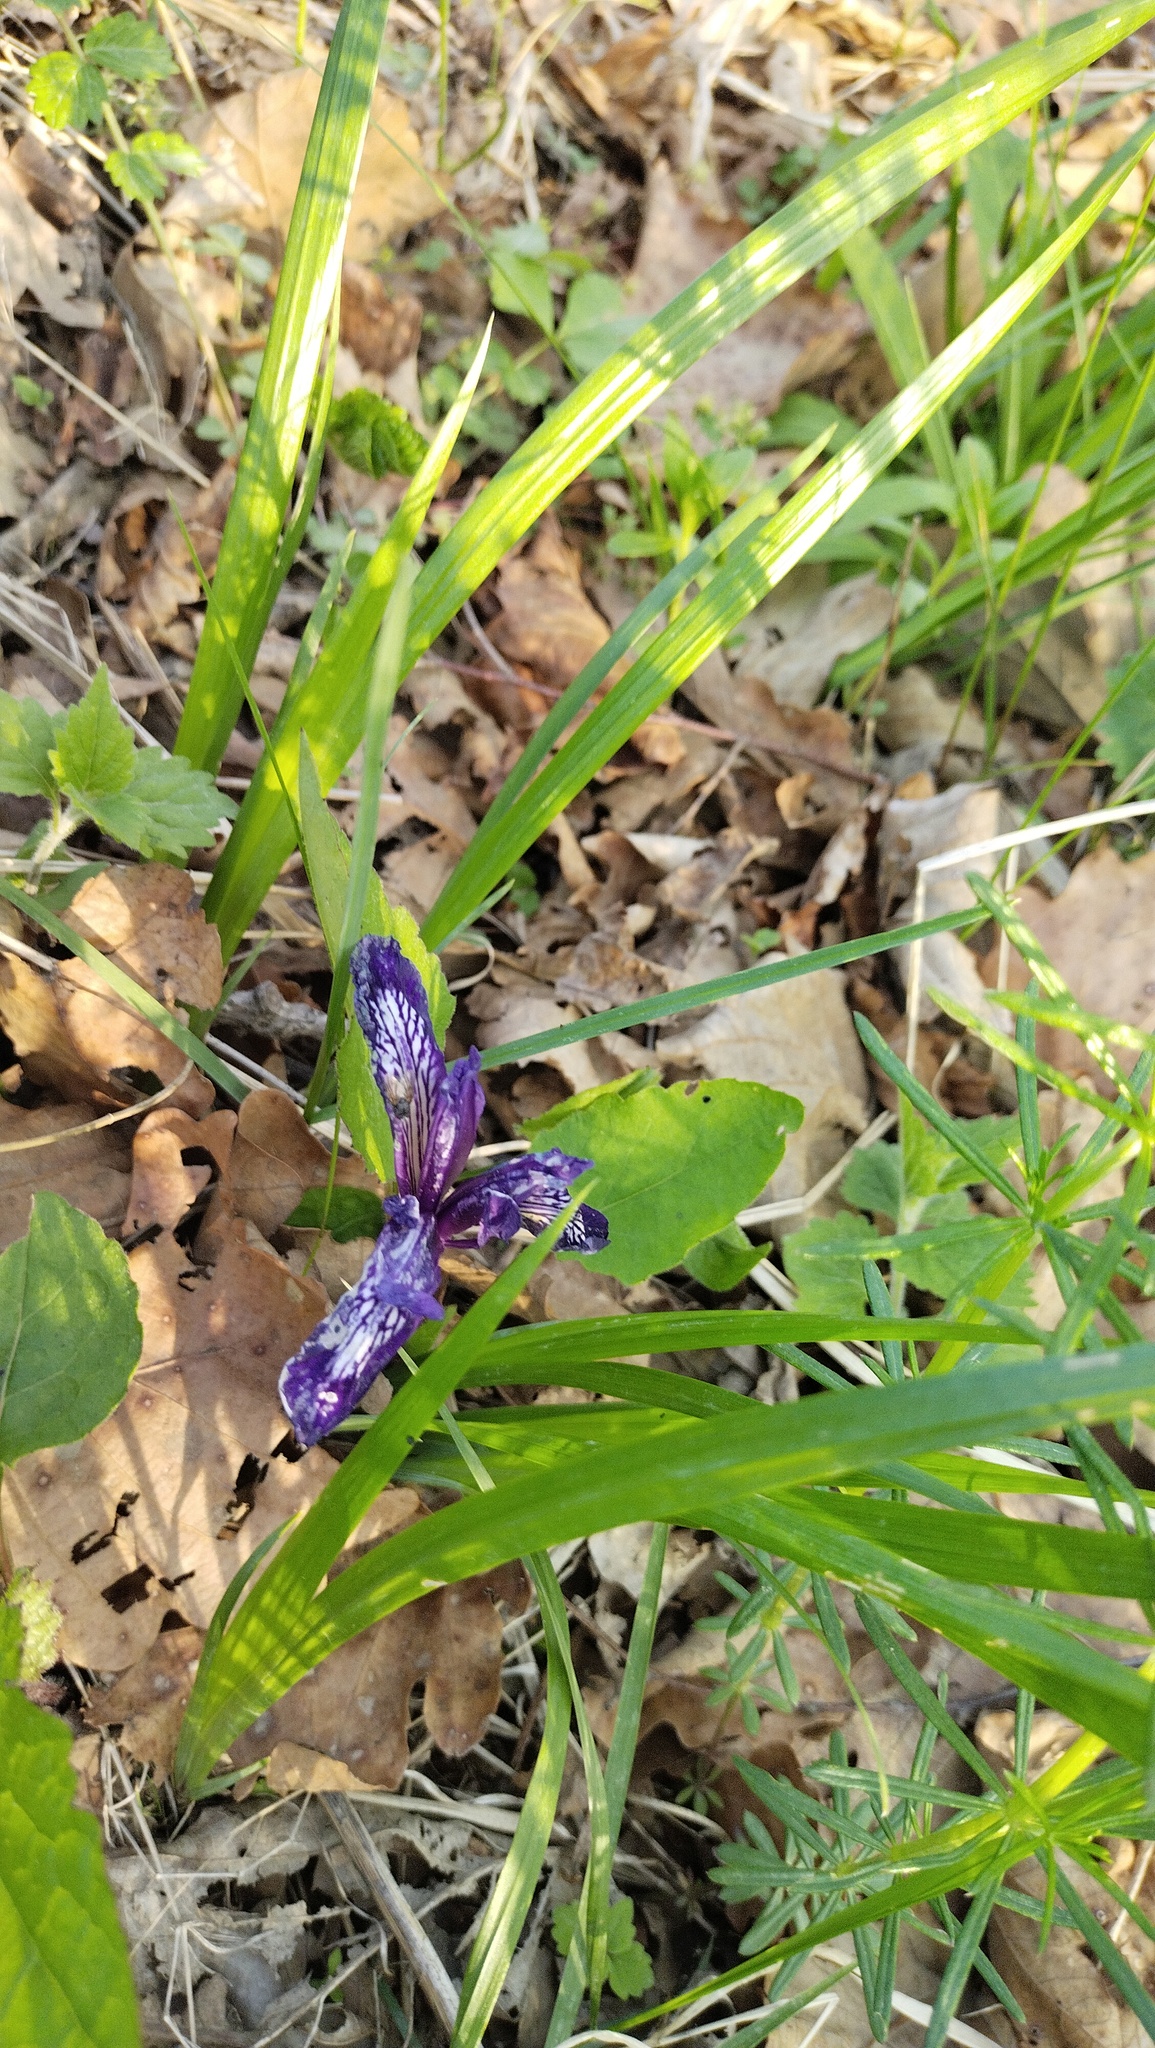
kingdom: Plantae
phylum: Tracheophyta
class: Liliopsida
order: Asparagales
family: Iridaceae
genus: Iris
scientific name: Iris uniflora
